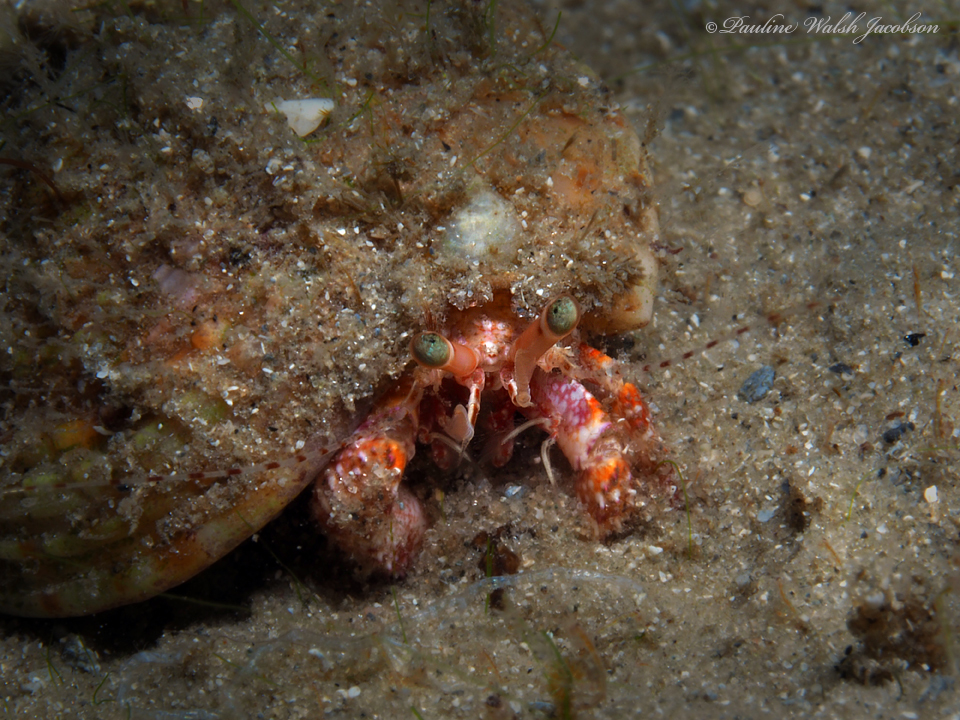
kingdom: Animalia
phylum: Arthropoda
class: Malacostraca
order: Decapoda
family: Diogenidae
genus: Petrochirus
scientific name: Petrochirus diogenes
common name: Giant hermit crab
